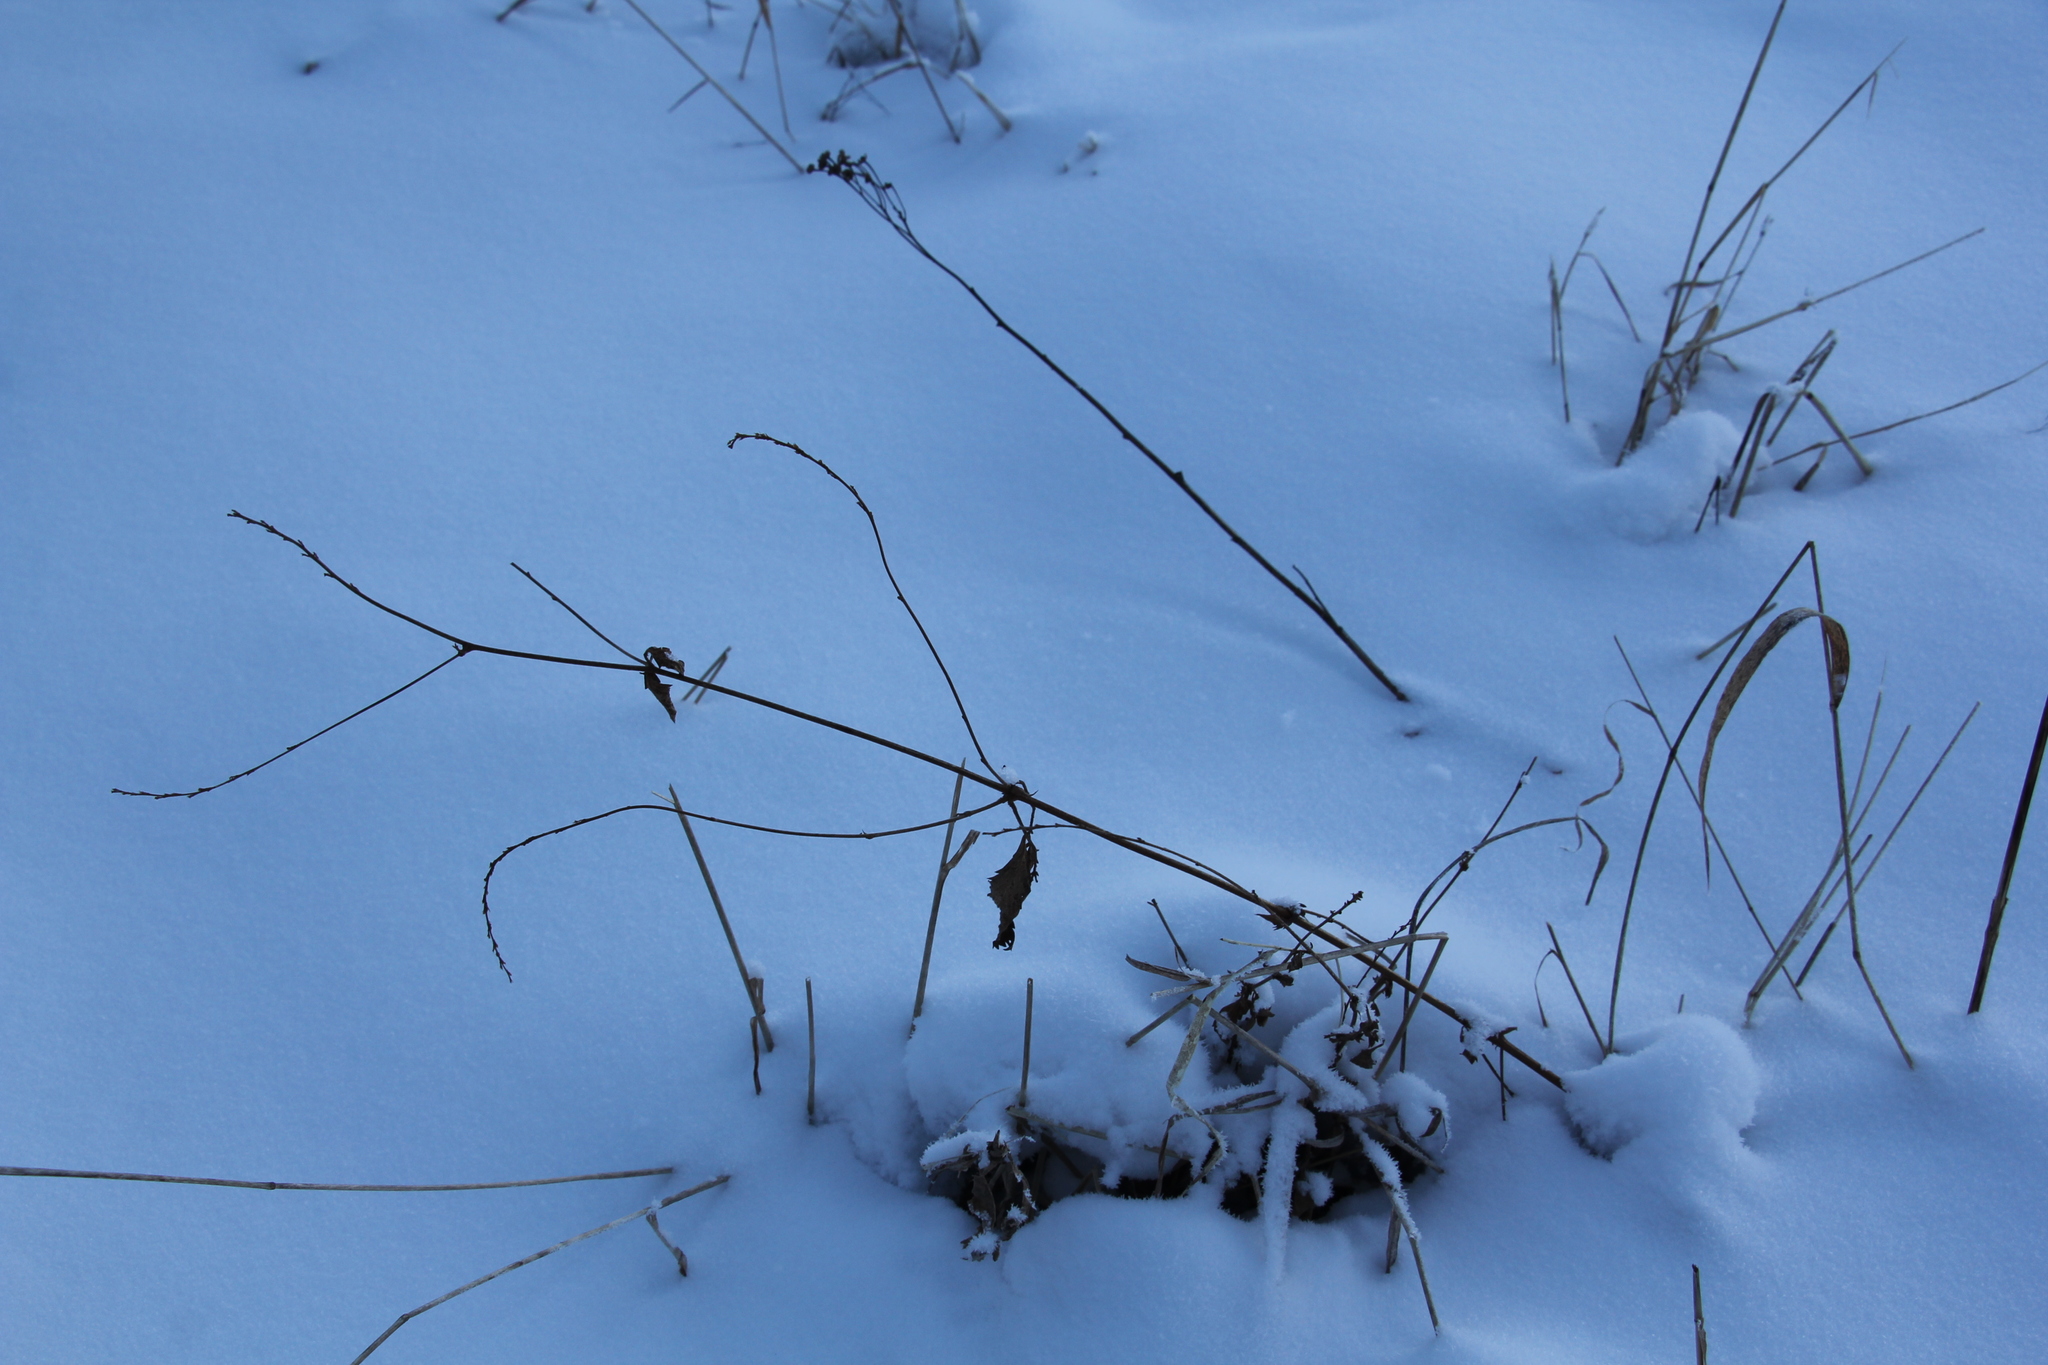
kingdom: Plantae
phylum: Tracheophyta
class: Magnoliopsida
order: Rosales
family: Rosaceae
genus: Agrimonia
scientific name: Agrimonia pilosa
